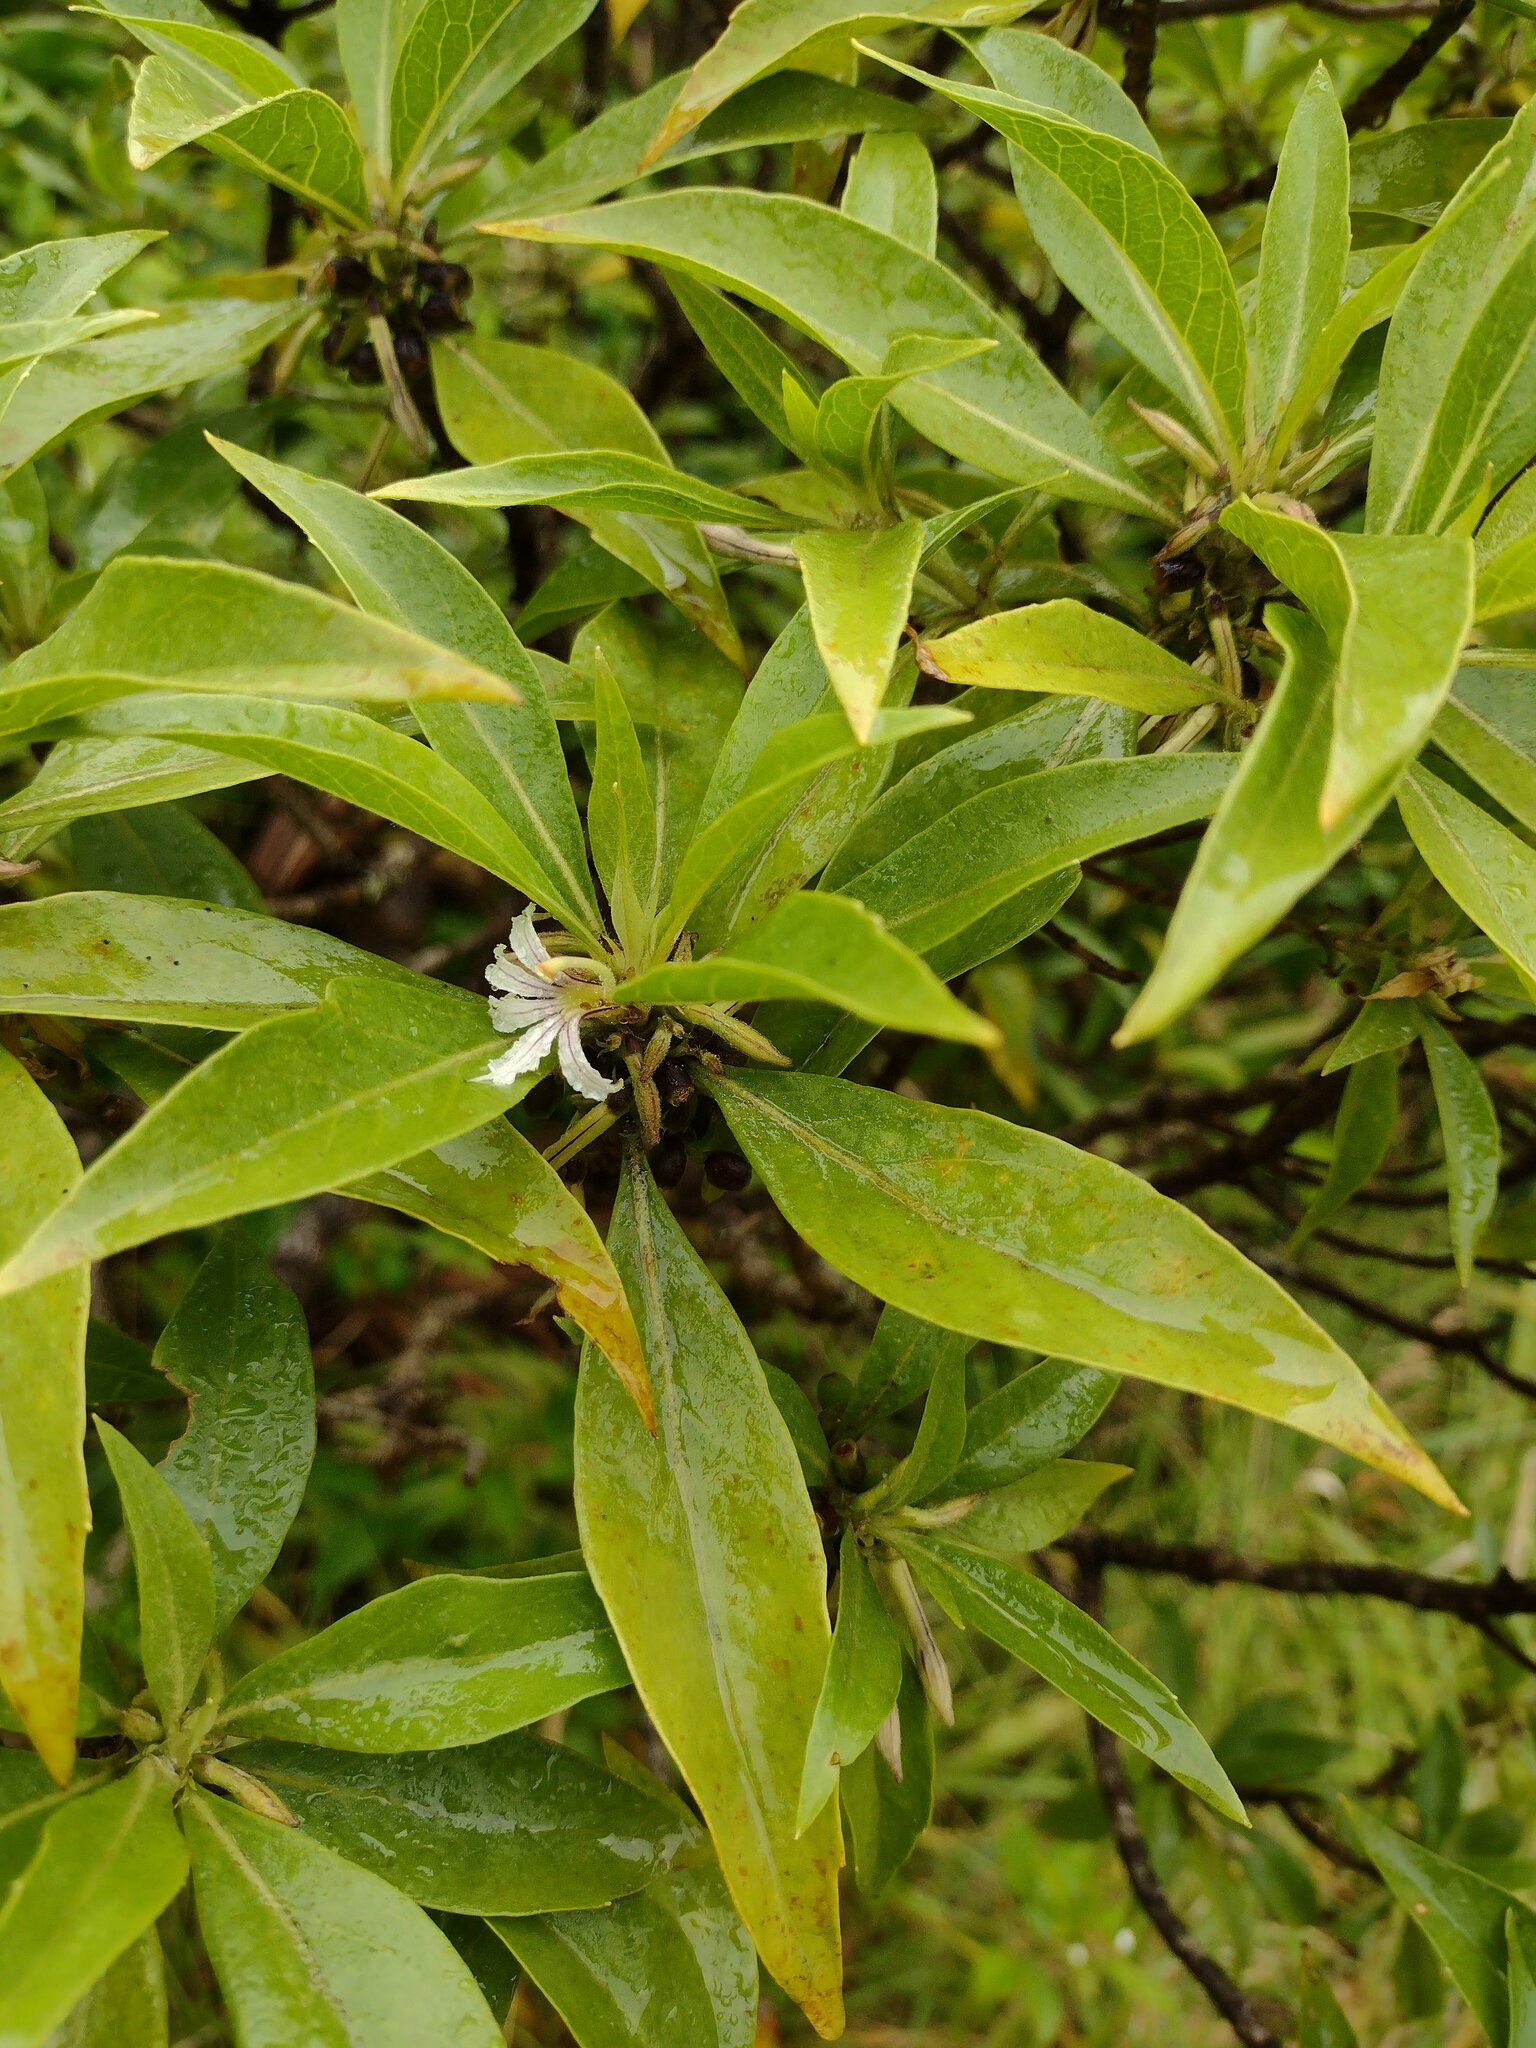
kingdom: Plantae
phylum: Tracheophyta
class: Magnoliopsida
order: Asterales
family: Goodeniaceae
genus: Scaevola
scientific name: Scaevola procera
